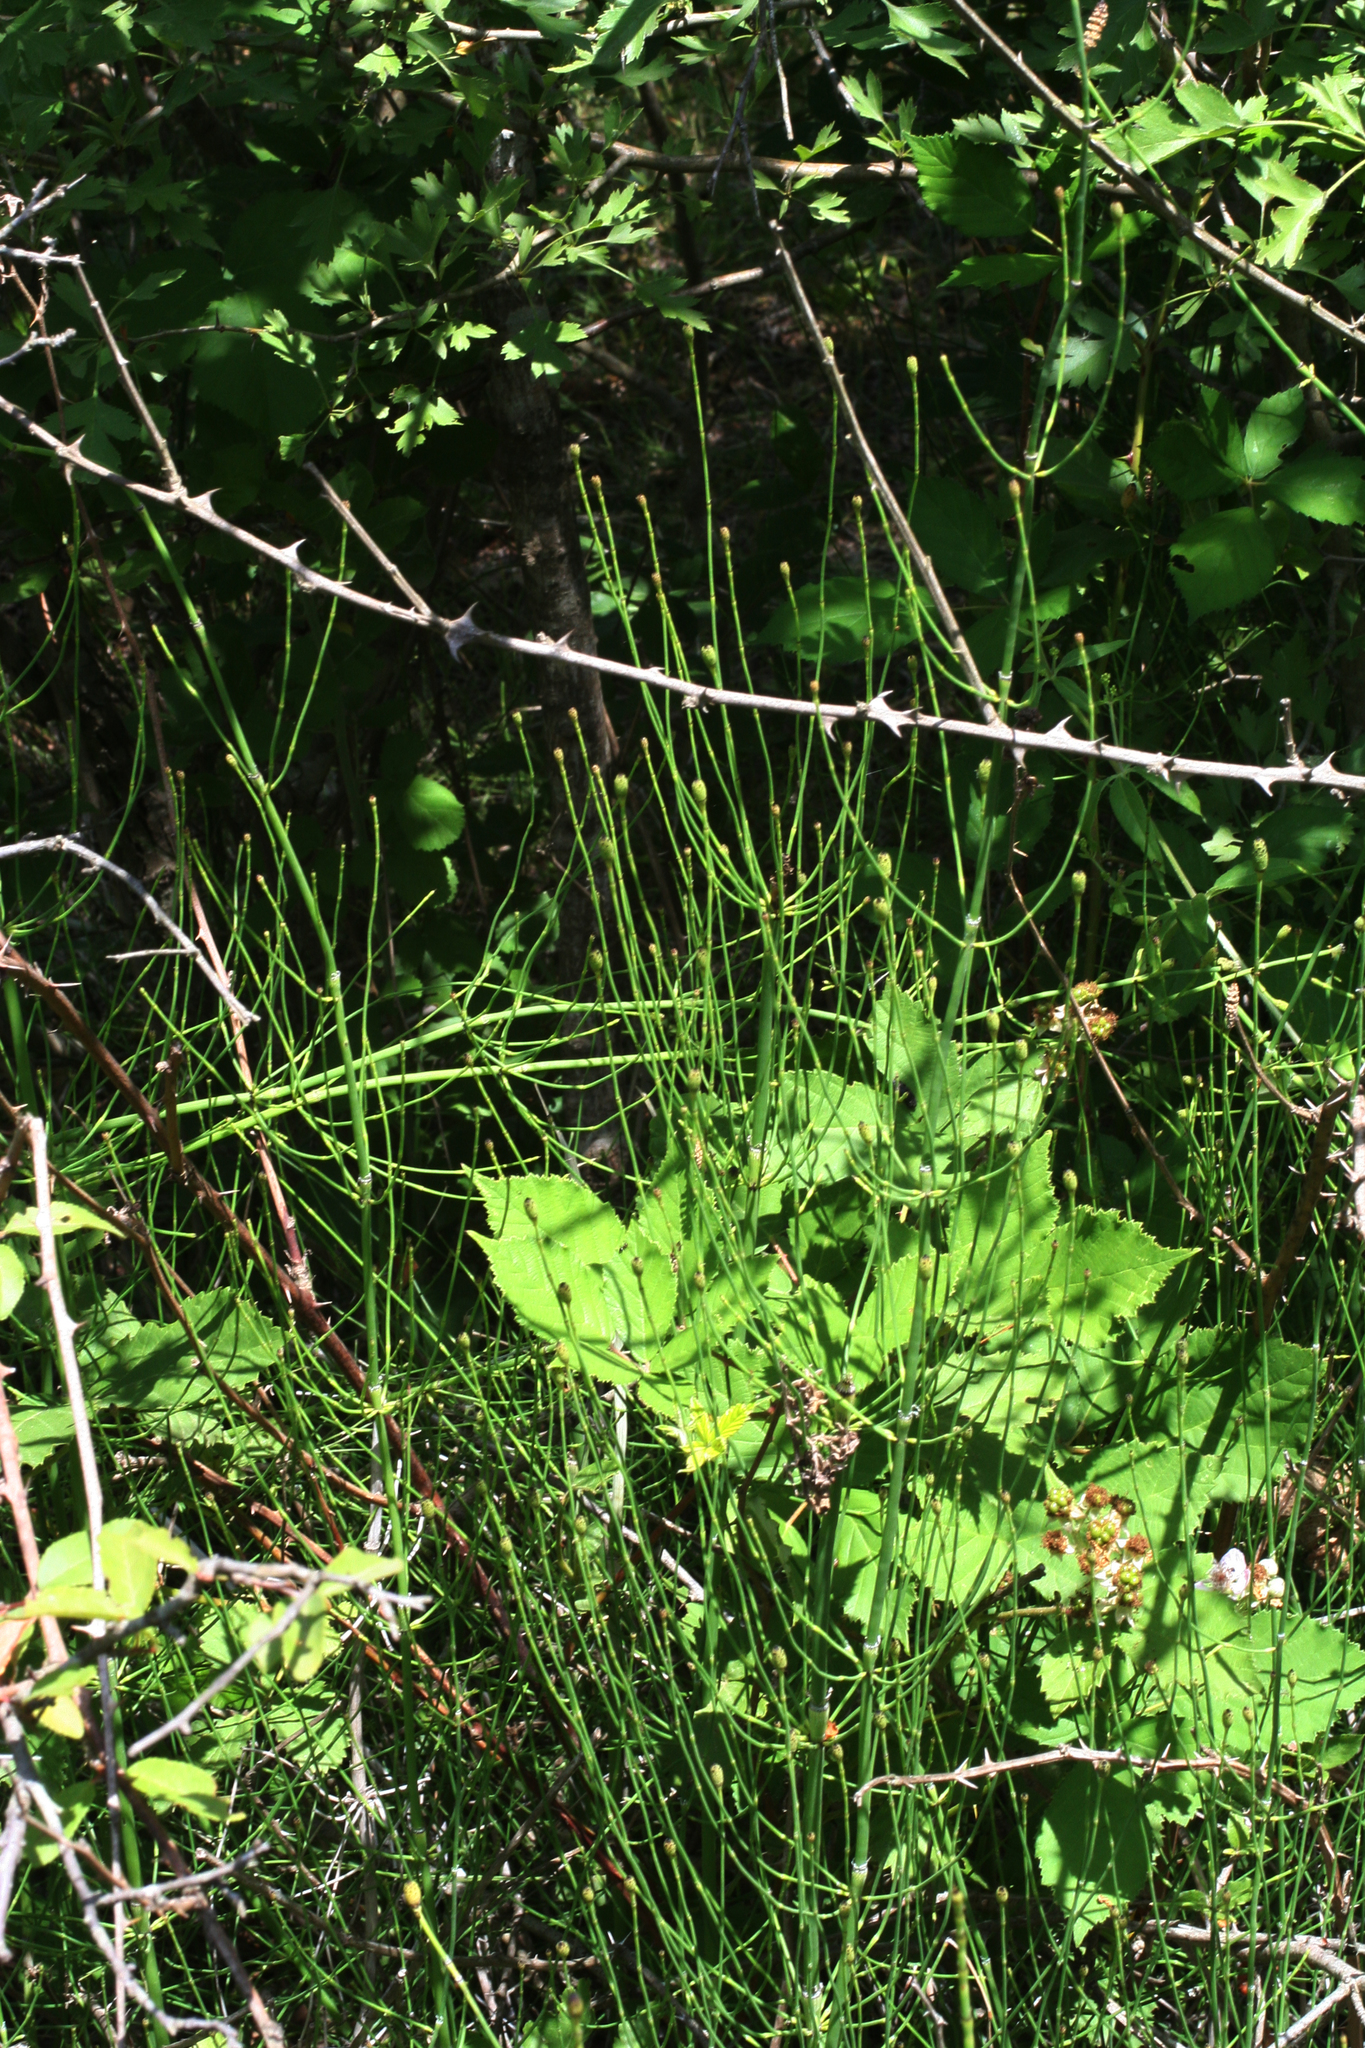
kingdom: Plantae
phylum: Tracheophyta
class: Polypodiopsida
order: Equisetales
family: Equisetaceae
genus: Equisetum
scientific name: Equisetum ramosissimum
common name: Branched horsetail
